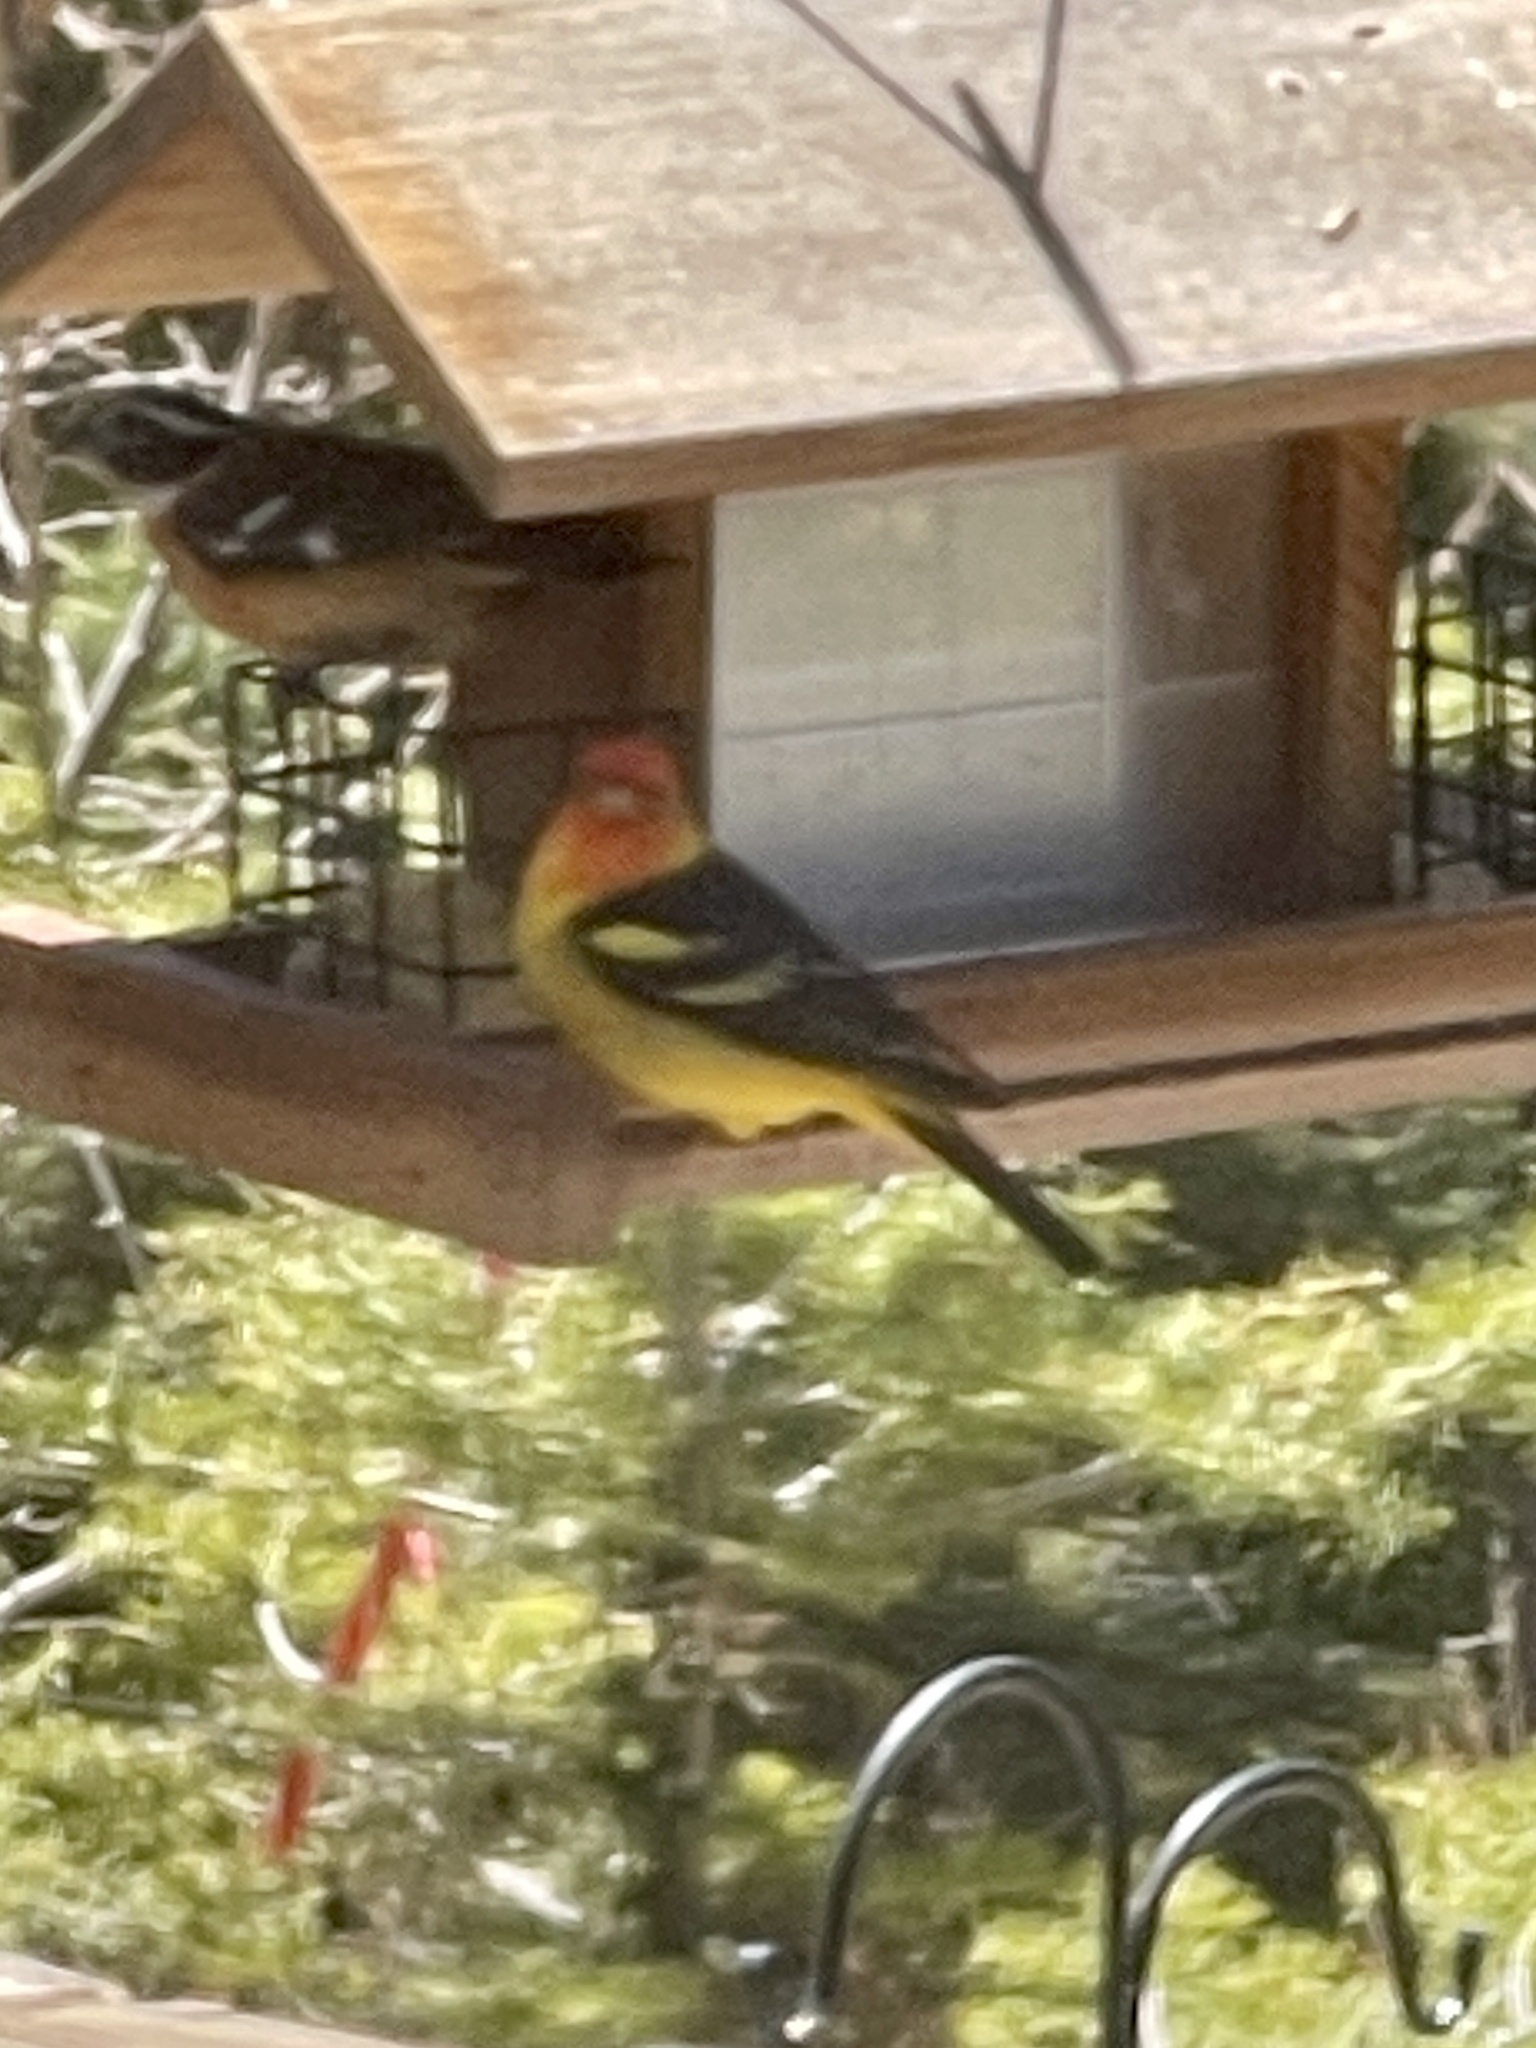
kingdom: Animalia
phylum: Chordata
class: Aves
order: Passeriformes
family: Cardinalidae
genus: Piranga
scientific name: Piranga ludoviciana
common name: Western tanager
